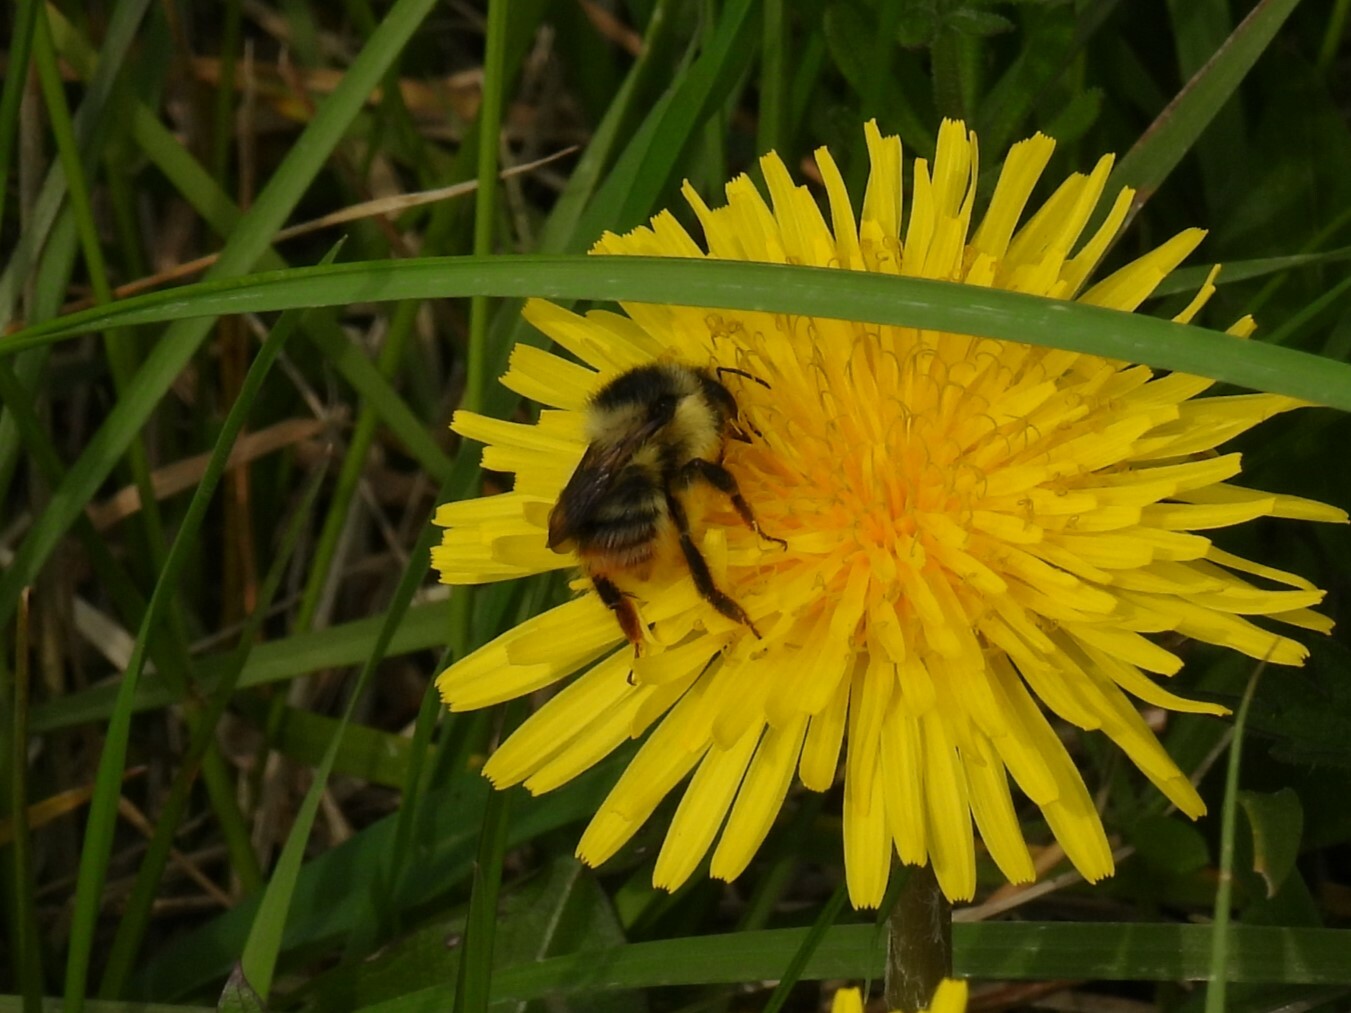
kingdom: Animalia
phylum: Arthropoda
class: Insecta
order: Hymenoptera
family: Apidae
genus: Bombus
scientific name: Bombus sylvarum
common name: Shrill carder bee
